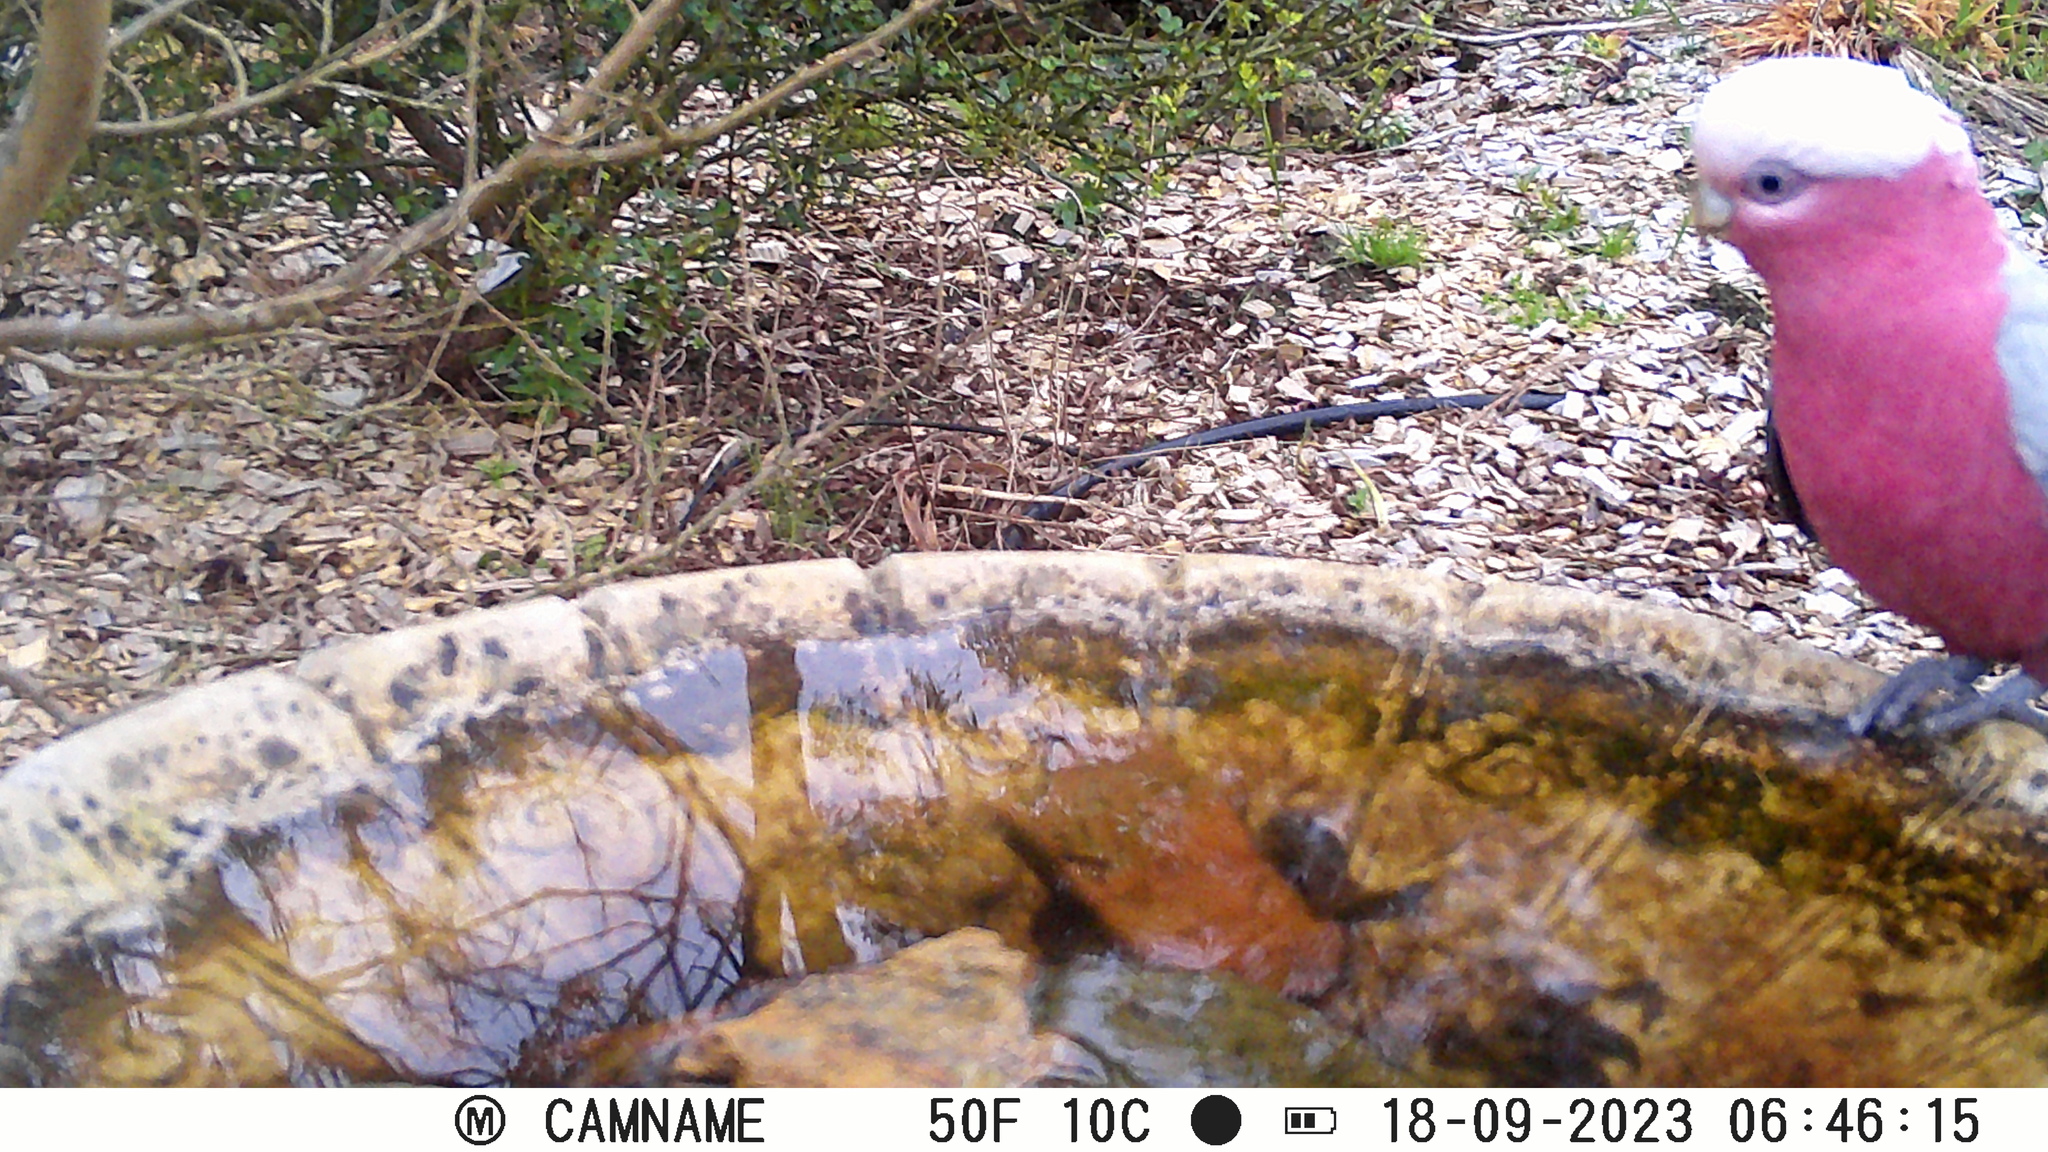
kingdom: Animalia
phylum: Chordata
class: Aves
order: Psittaciformes
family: Psittacidae
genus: Eolophus
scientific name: Eolophus roseicapilla
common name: Galah
